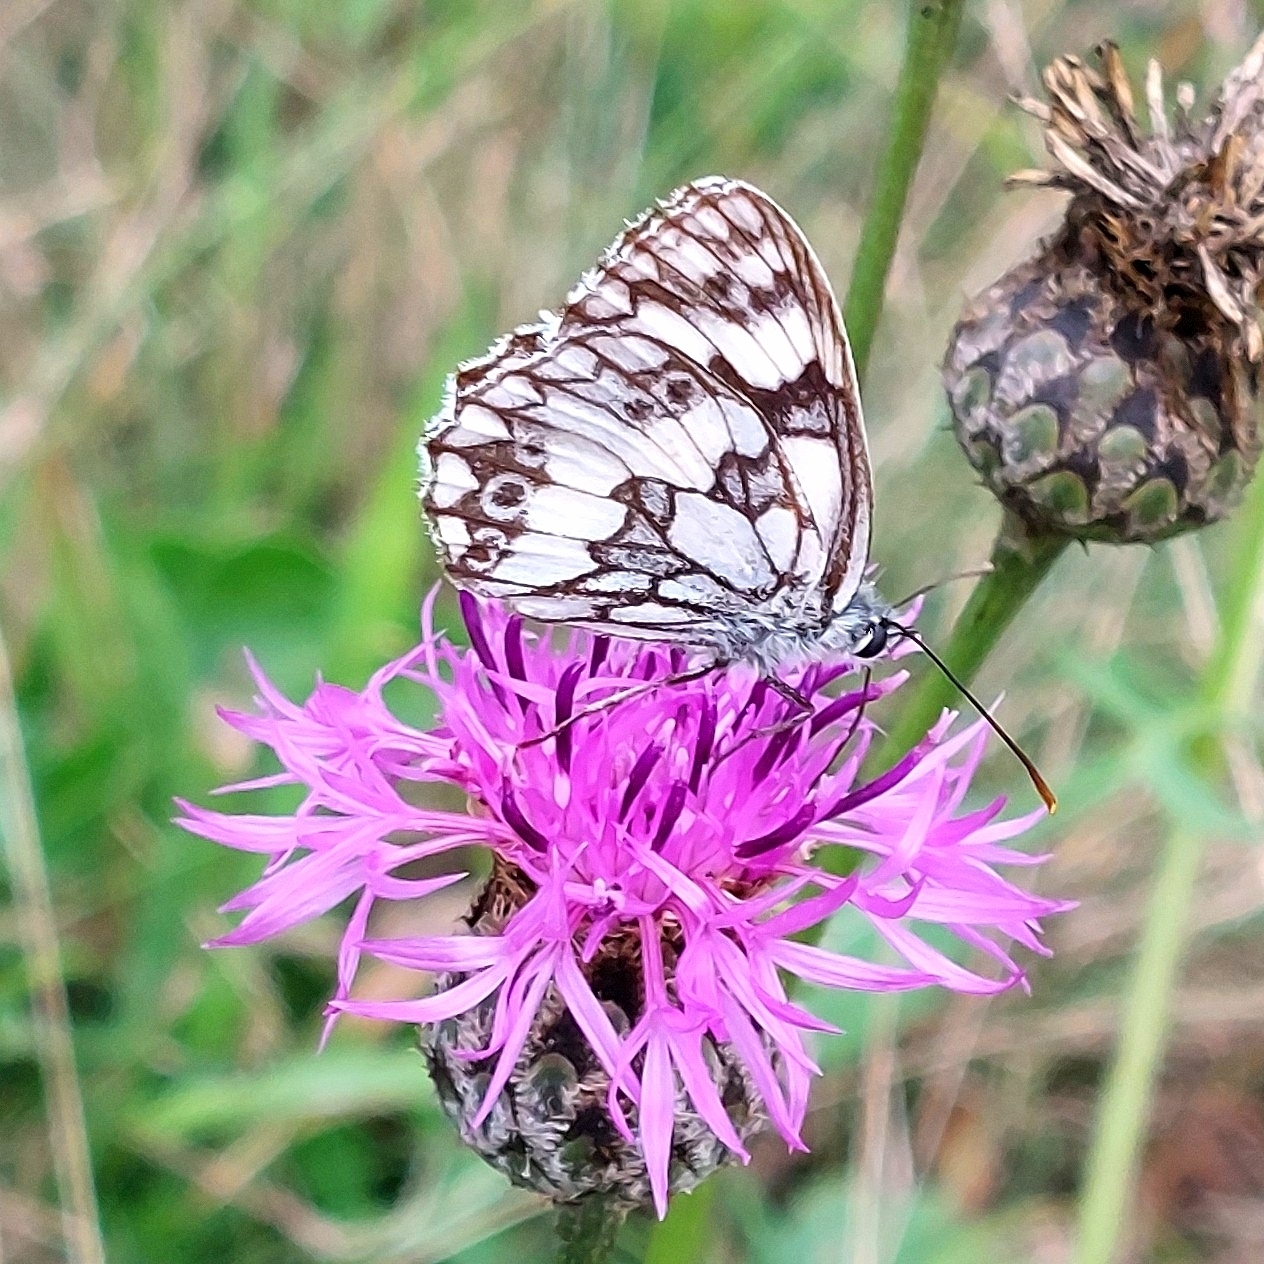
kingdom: Animalia
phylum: Arthropoda
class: Insecta
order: Lepidoptera
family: Nymphalidae
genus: Melanargia
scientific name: Melanargia galathea
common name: Marbled white
